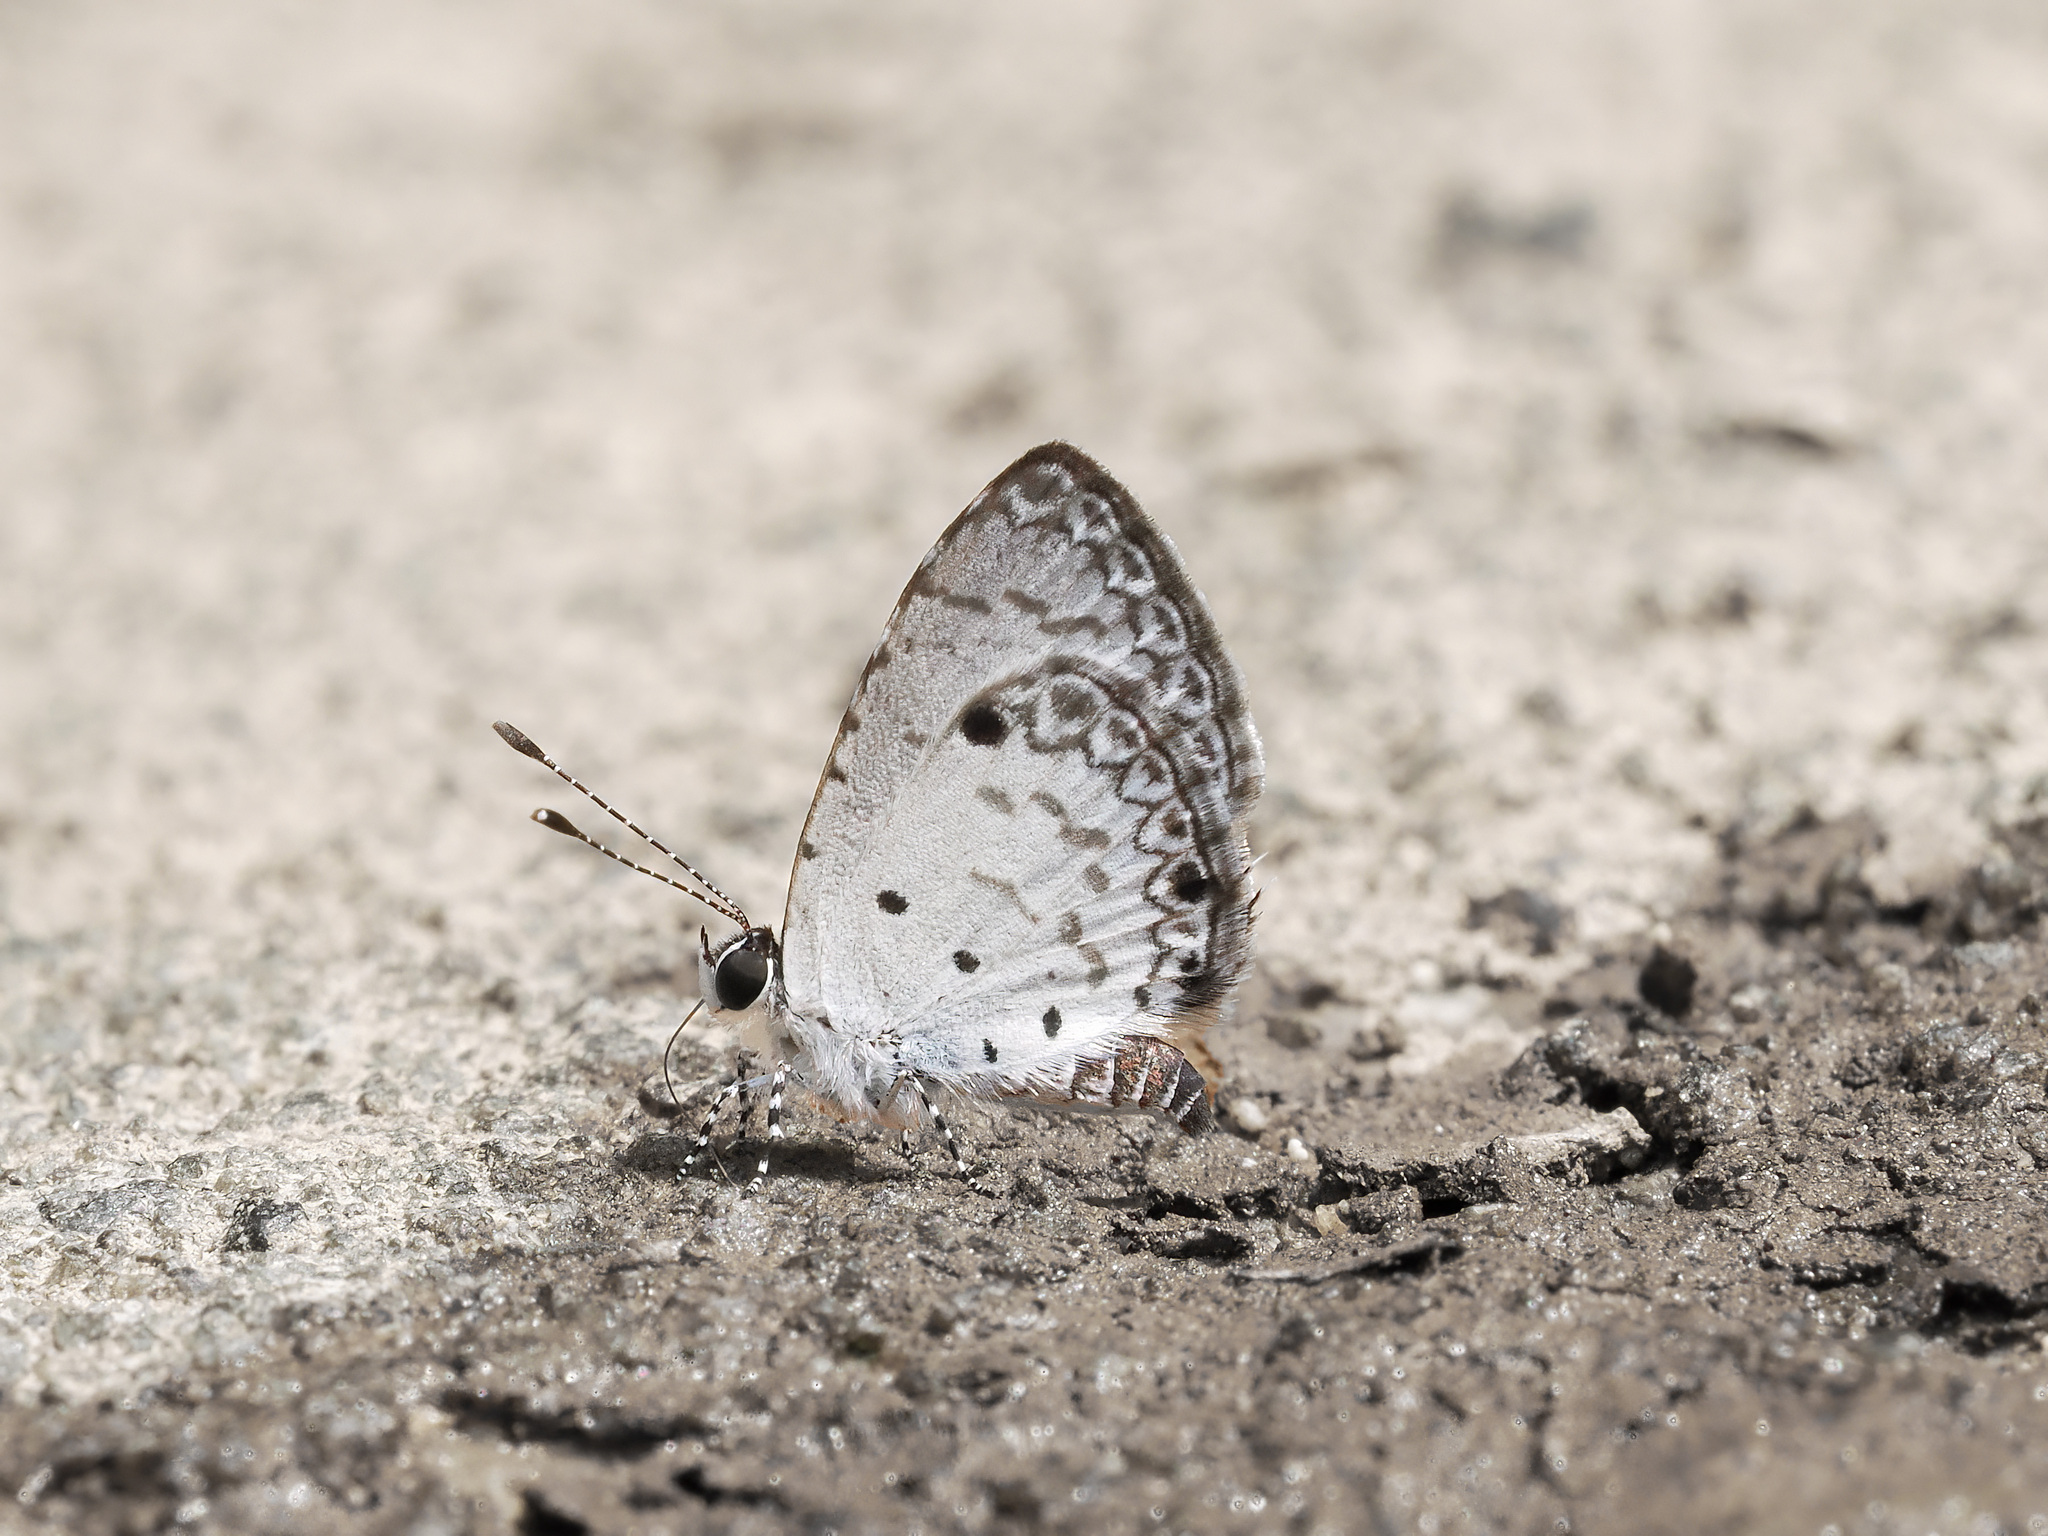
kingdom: Animalia
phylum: Arthropoda
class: Insecta
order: Lepidoptera
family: Lycaenidae
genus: Megisba
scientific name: Megisba malaya
